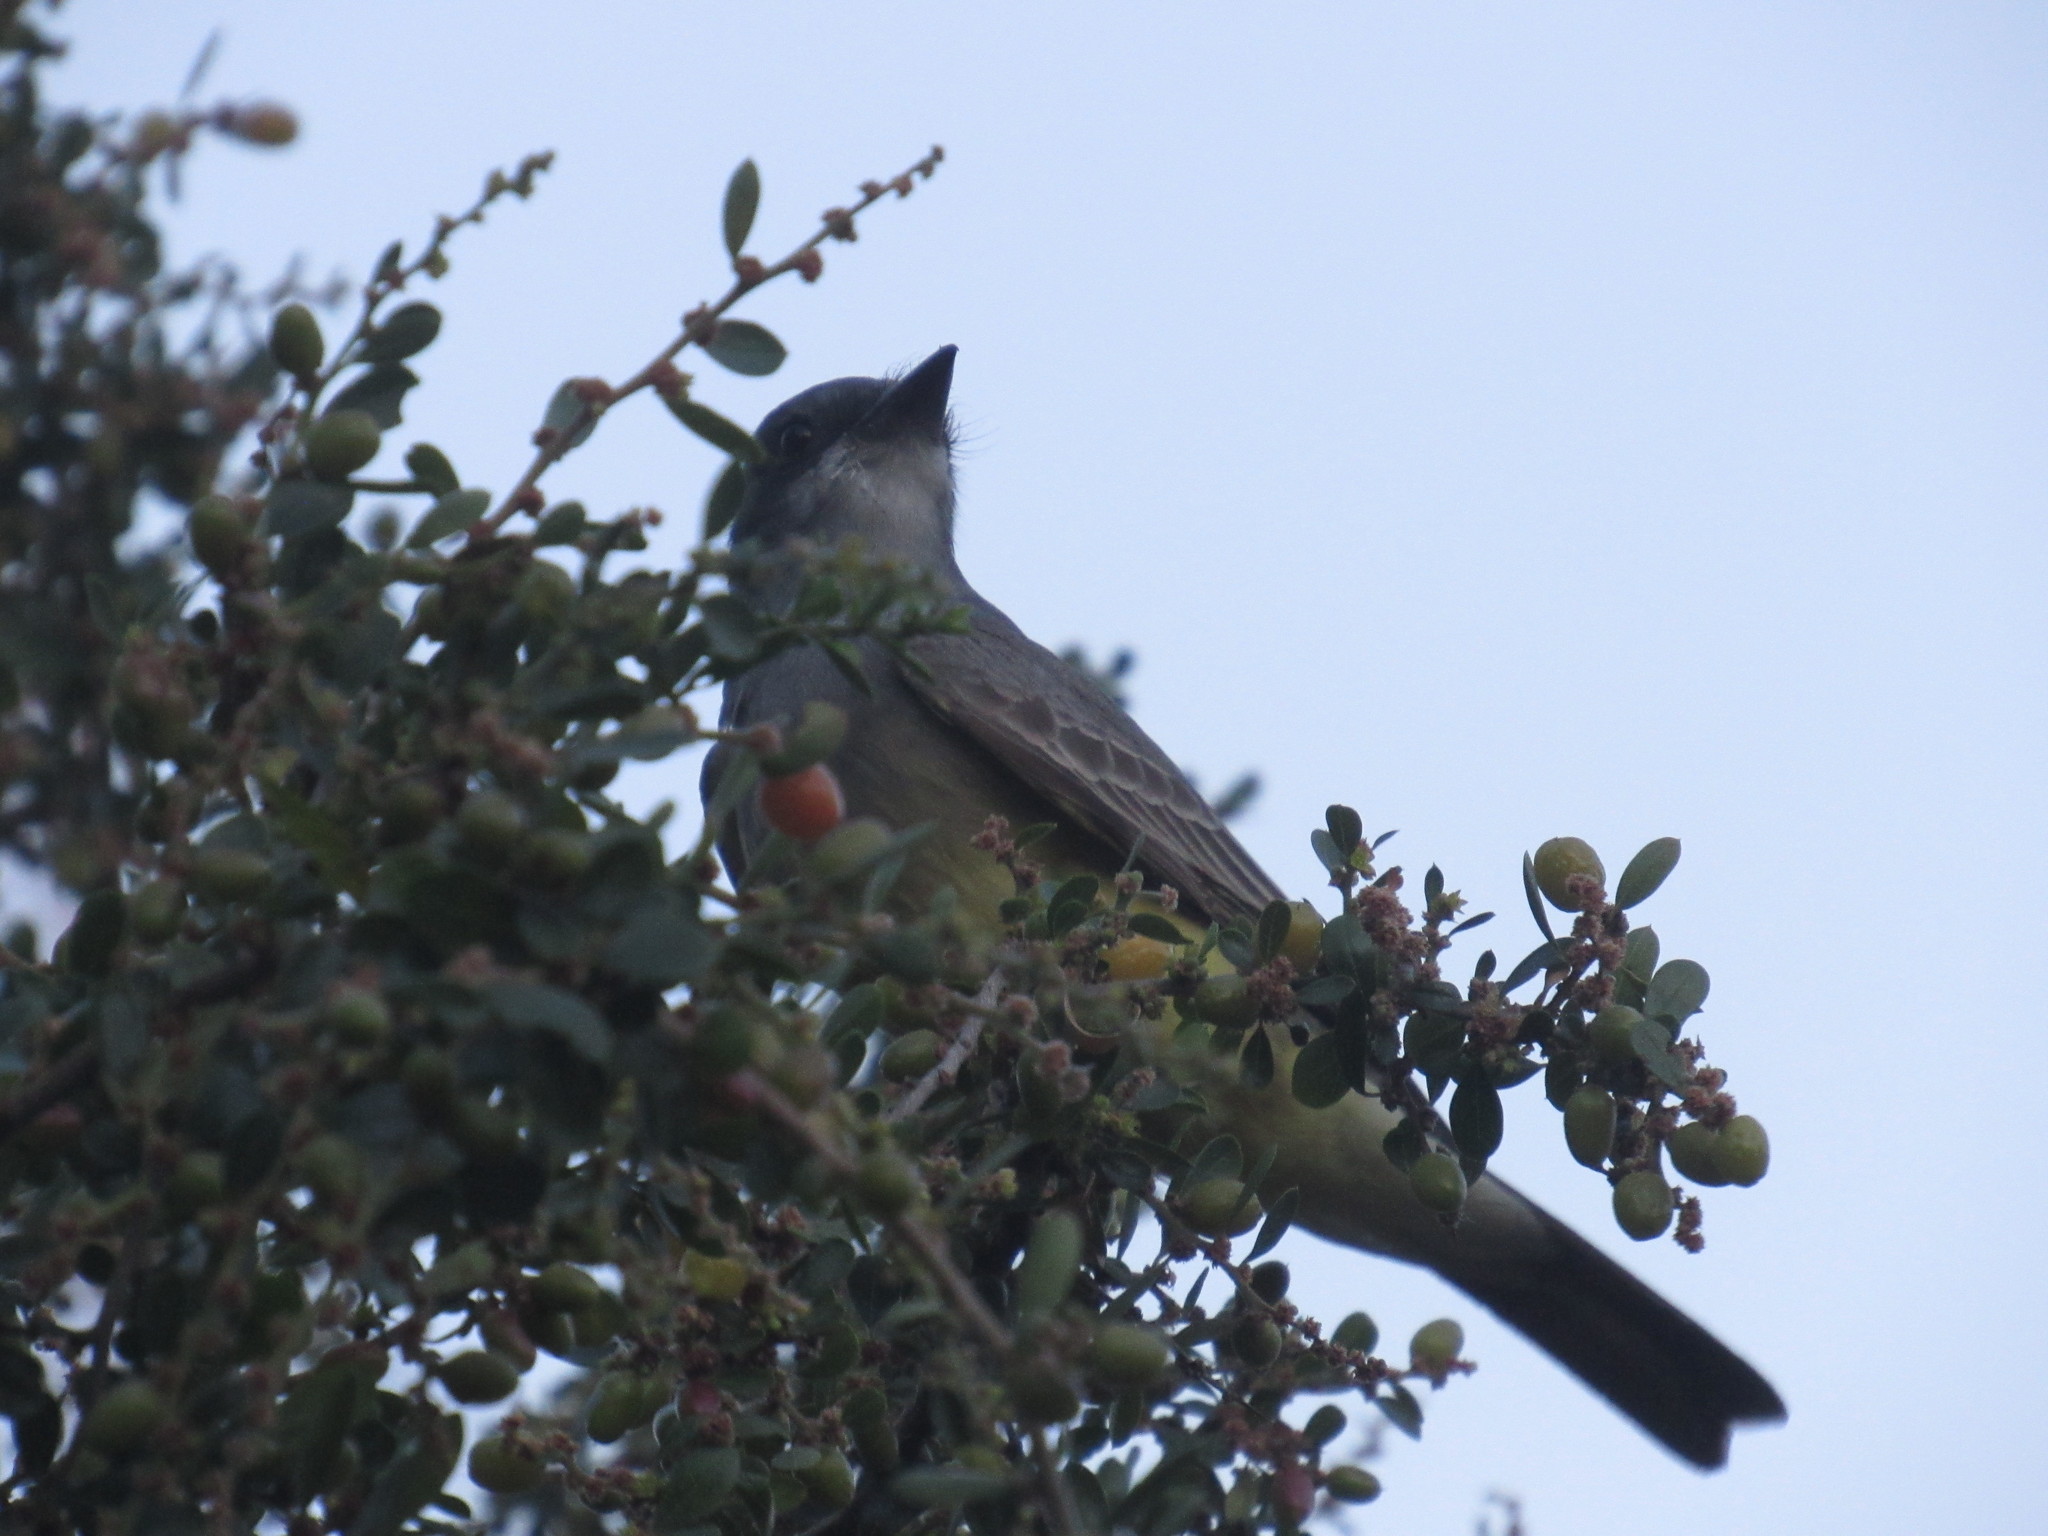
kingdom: Animalia
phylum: Chordata
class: Aves
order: Passeriformes
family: Tyrannidae
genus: Tyrannus
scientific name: Tyrannus vociferans
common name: Cassin's kingbird
